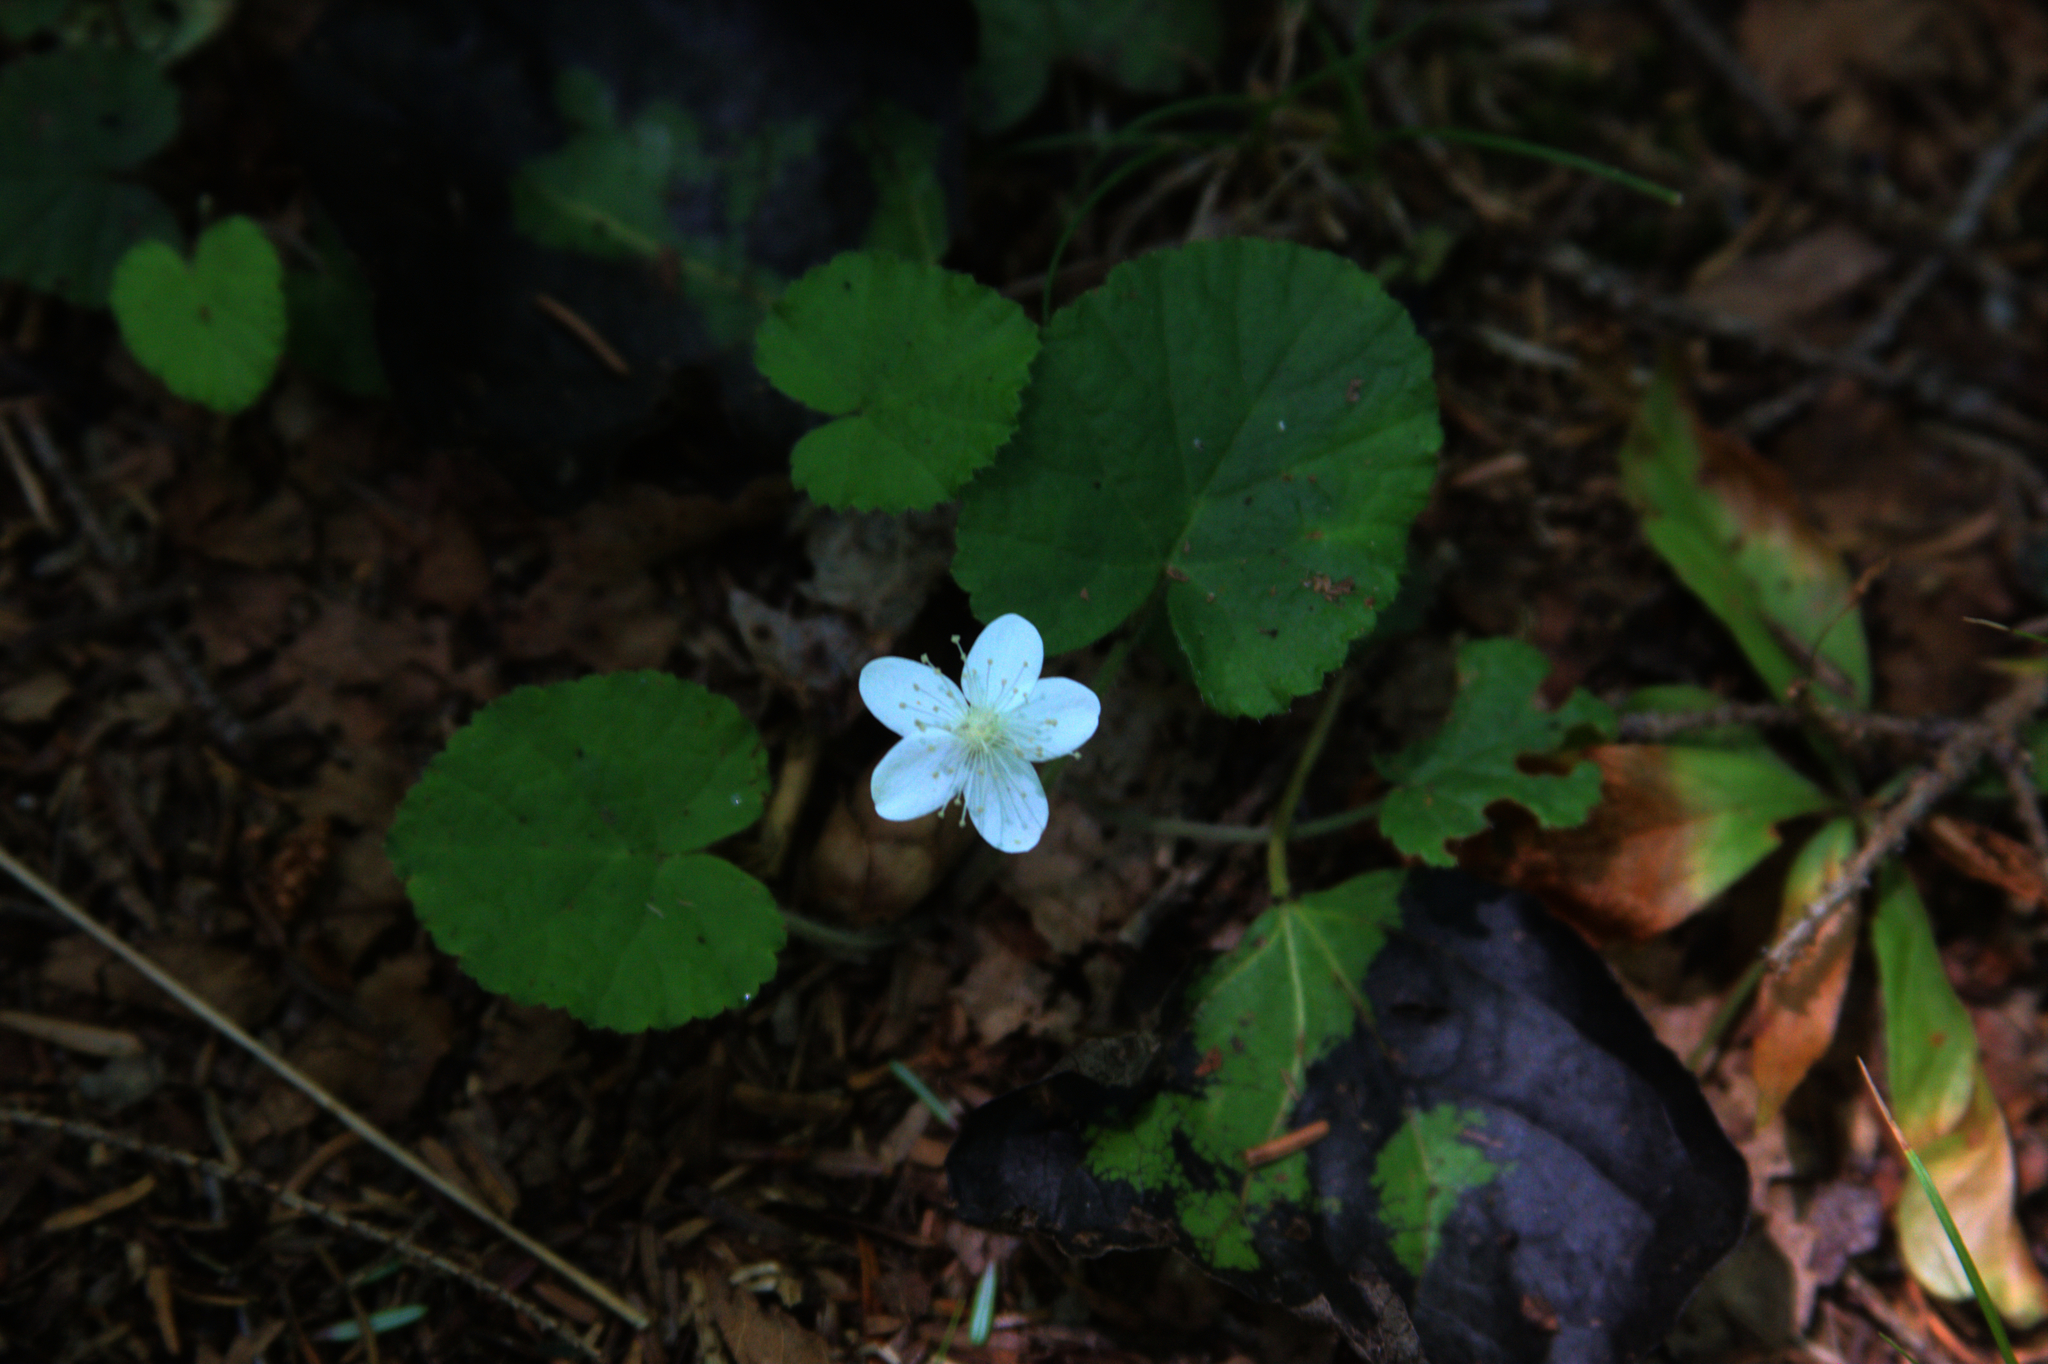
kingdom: Plantae
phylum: Tracheophyta
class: Magnoliopsida
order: Rosales
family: Rosaceae
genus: Dalibarda
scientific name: Dalibarda repens
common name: Dewdrop
